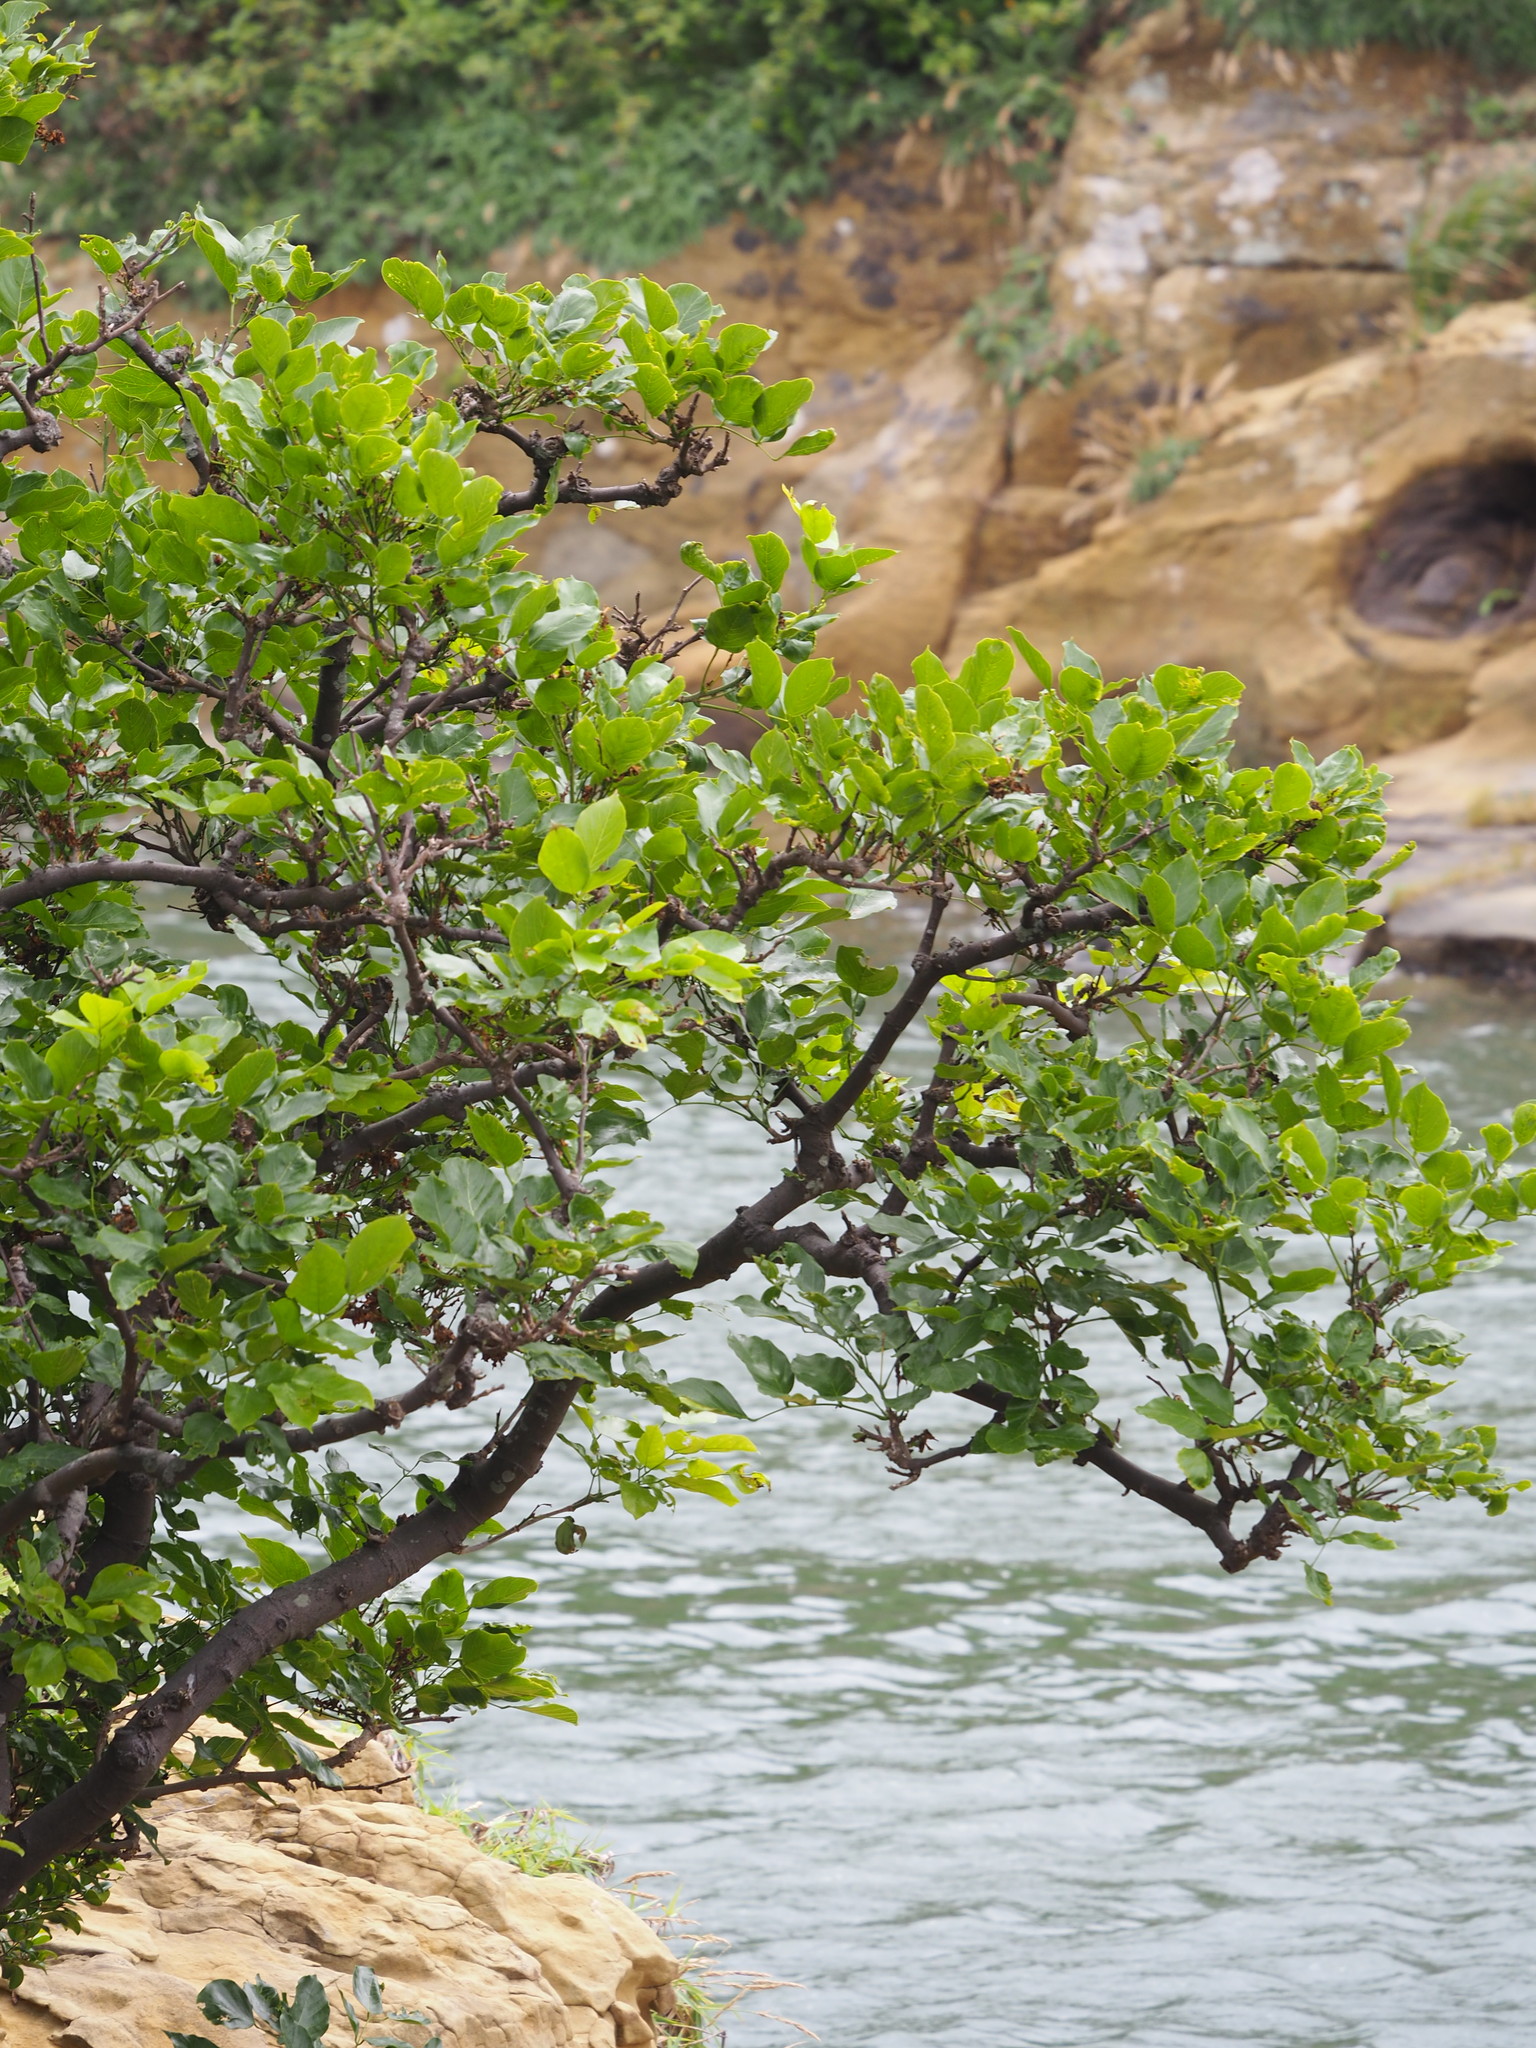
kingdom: Plantae
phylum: Tracheophyta
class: Magnoliopsida
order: Fabales
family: Fabaceae
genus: Pongamia
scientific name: Pongamia pinnata
